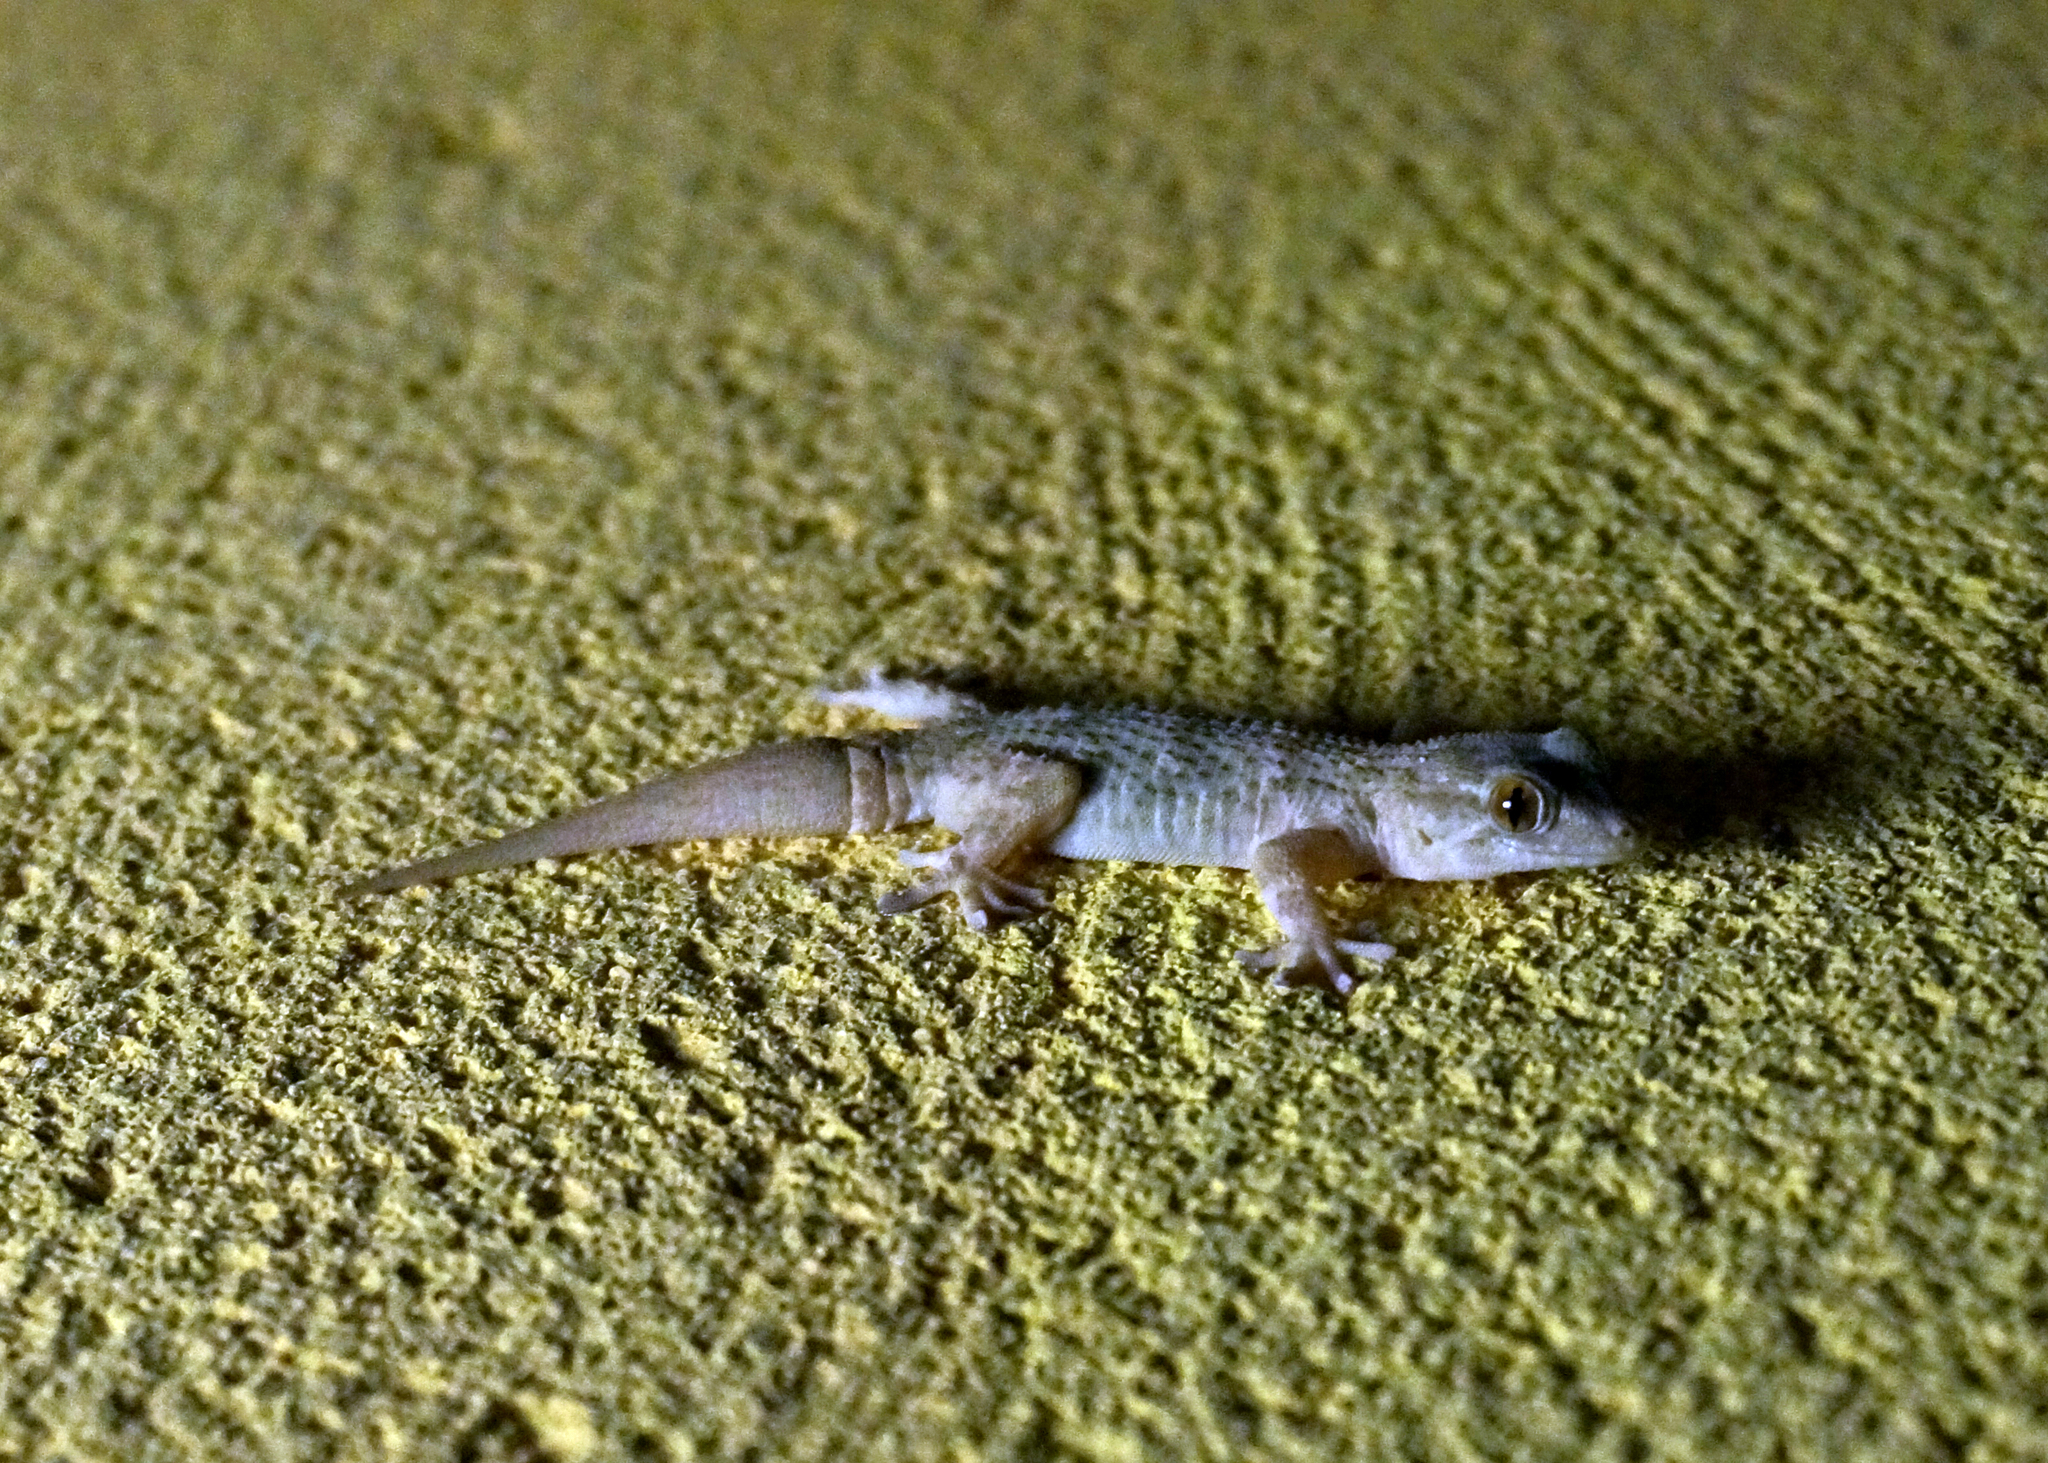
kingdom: Animalia
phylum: Chordata
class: Squamata
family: Phyllodactylidae
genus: Tarentola
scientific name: Tarentola angustimentalis
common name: East canary gecko
